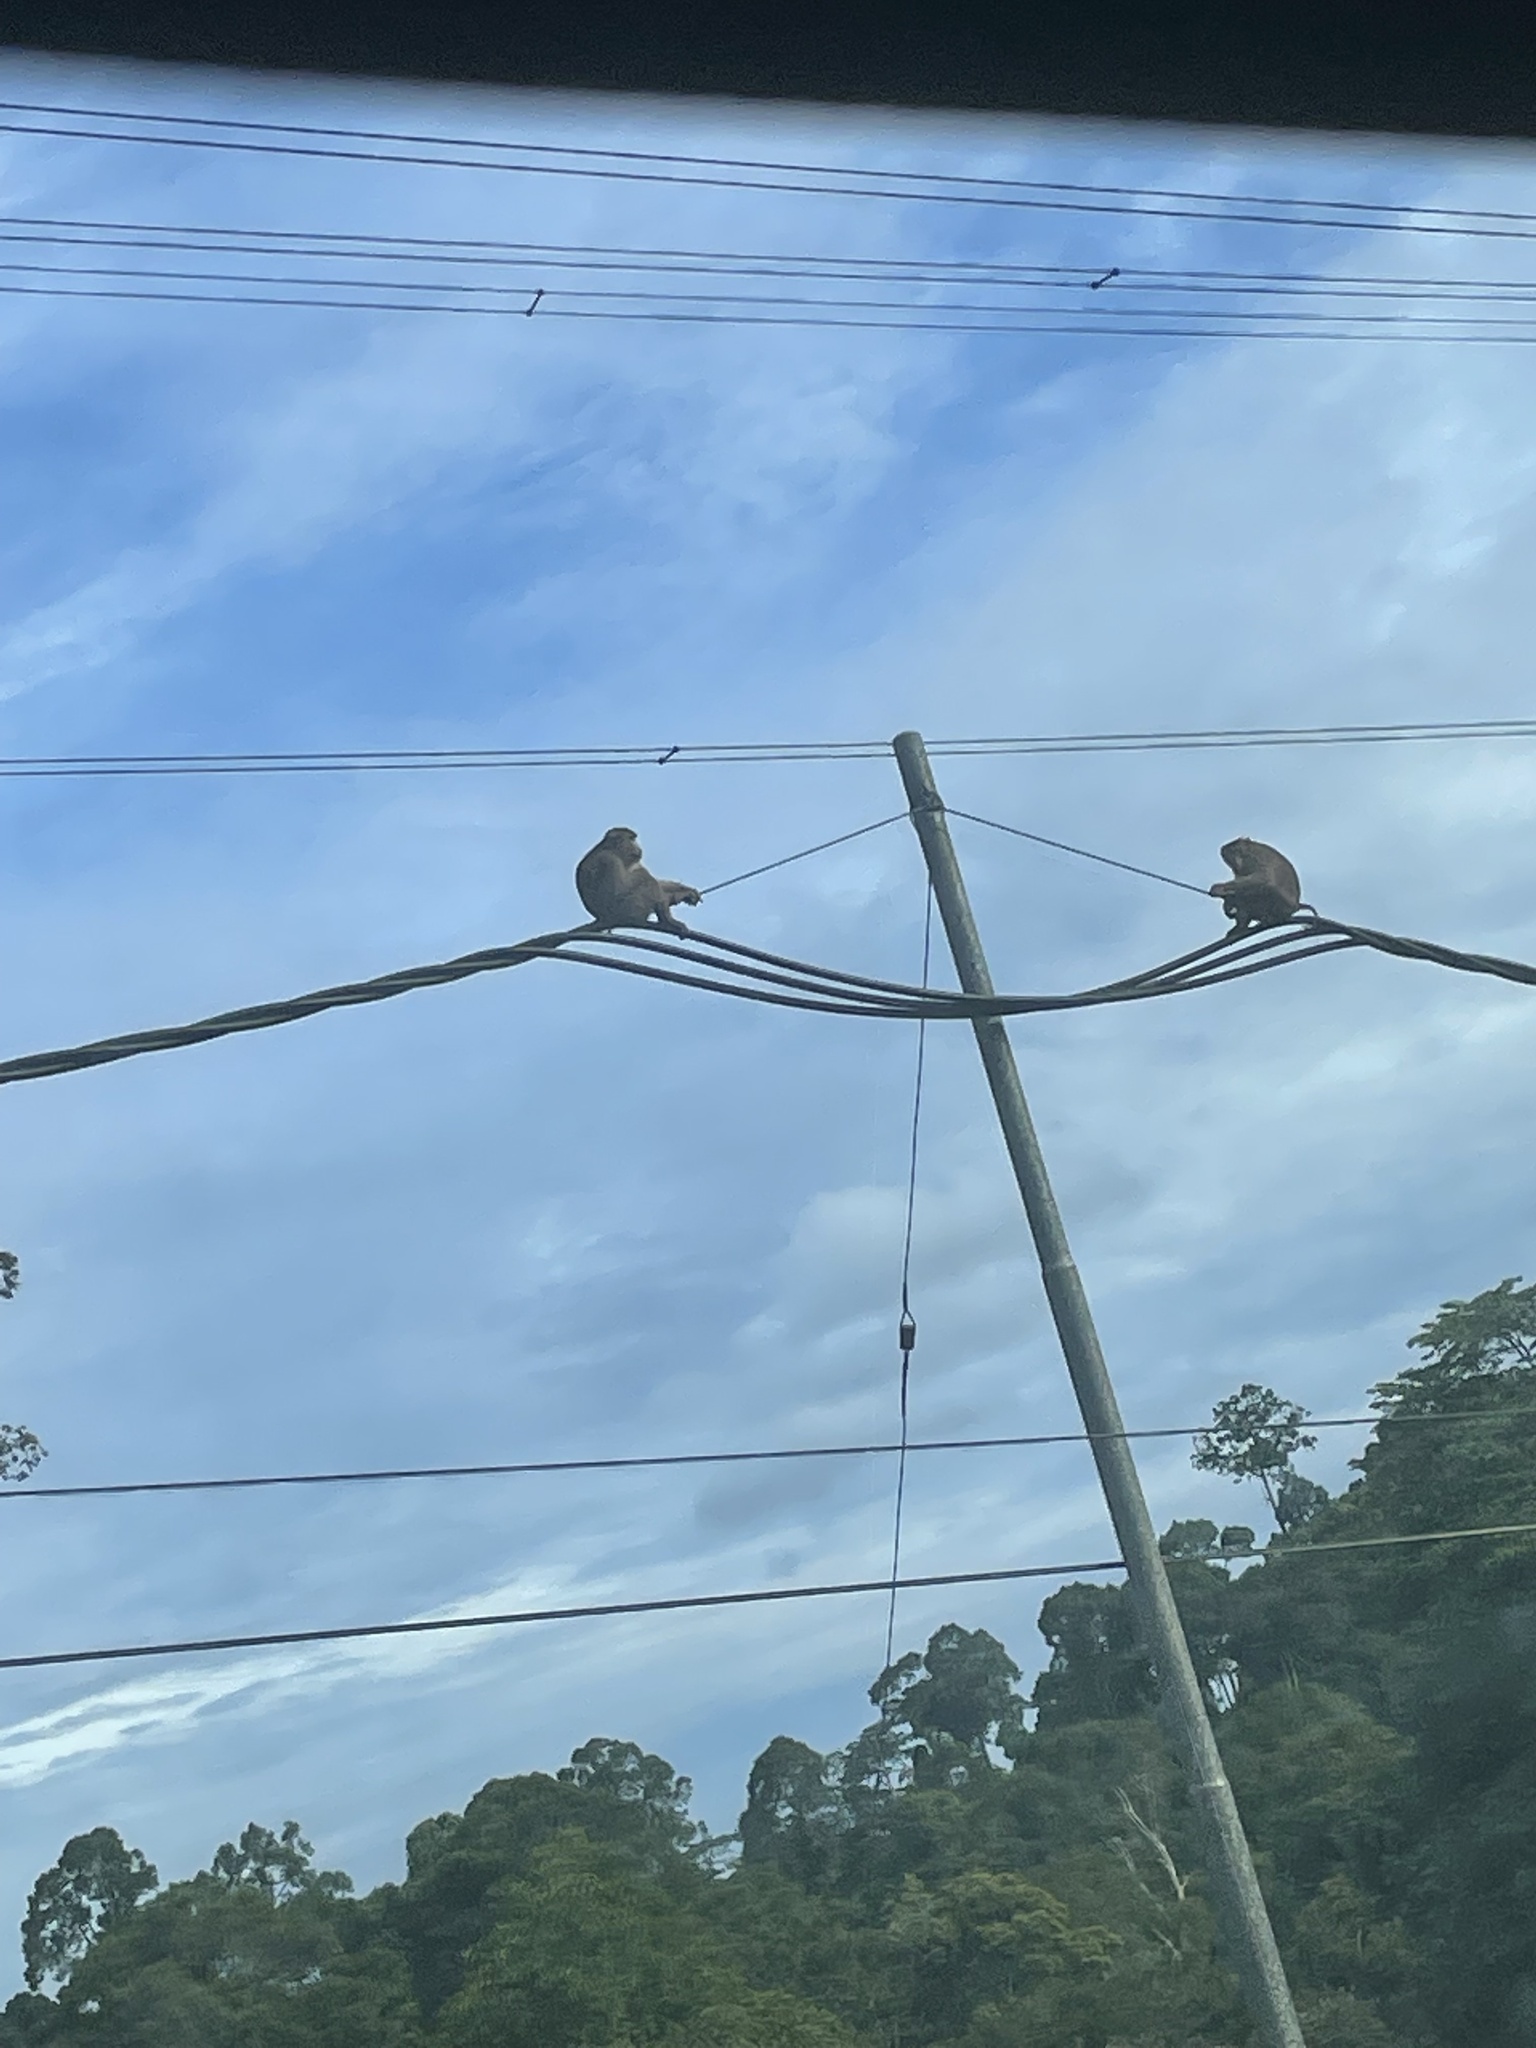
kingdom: Animalia
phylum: Chordata
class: Mammalia
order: Primates
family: Cercopithecidae
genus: Macaca
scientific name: Macaca nemestrina
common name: Southern pig-tailed macaque
